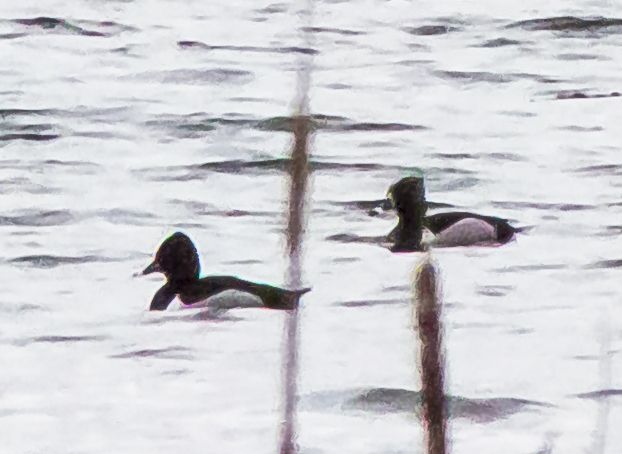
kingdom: Animalia
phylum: Chordata
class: Aves
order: Anseriformes
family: Anatidae
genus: Aythya
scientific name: Aythya collaris
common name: Ring-necked duck
